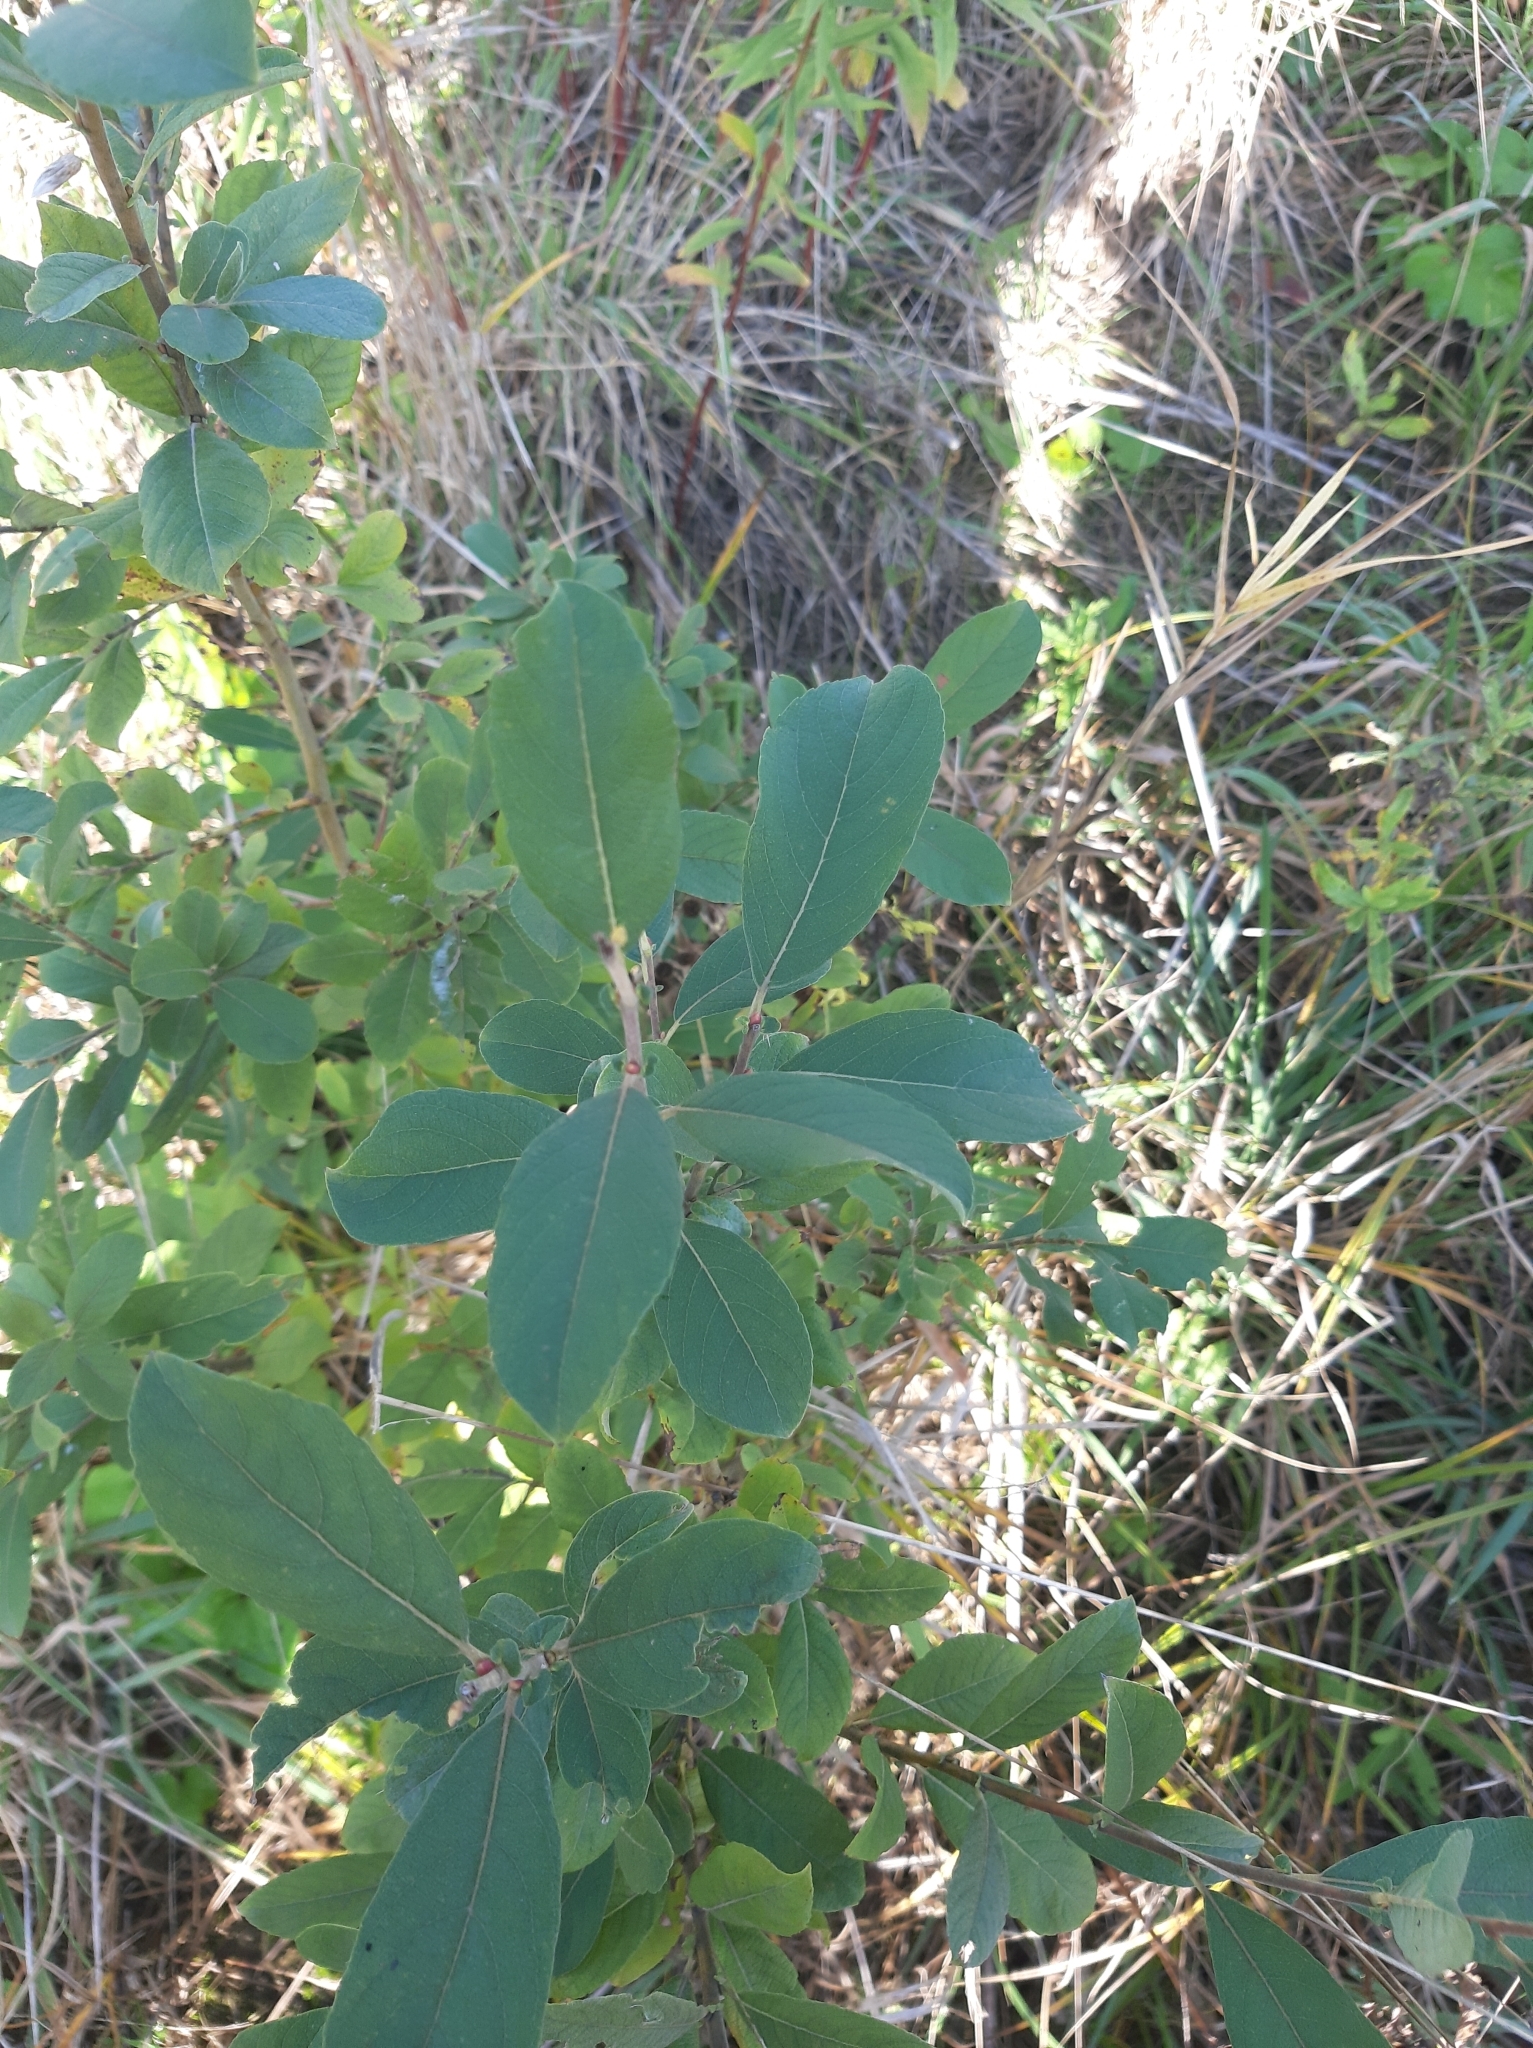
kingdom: Plantae
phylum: Tracheophyta
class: Magnoliopsida
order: Malpighiales
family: Salicaceae
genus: Salix
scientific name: Salix cinerea
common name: Common sallow
